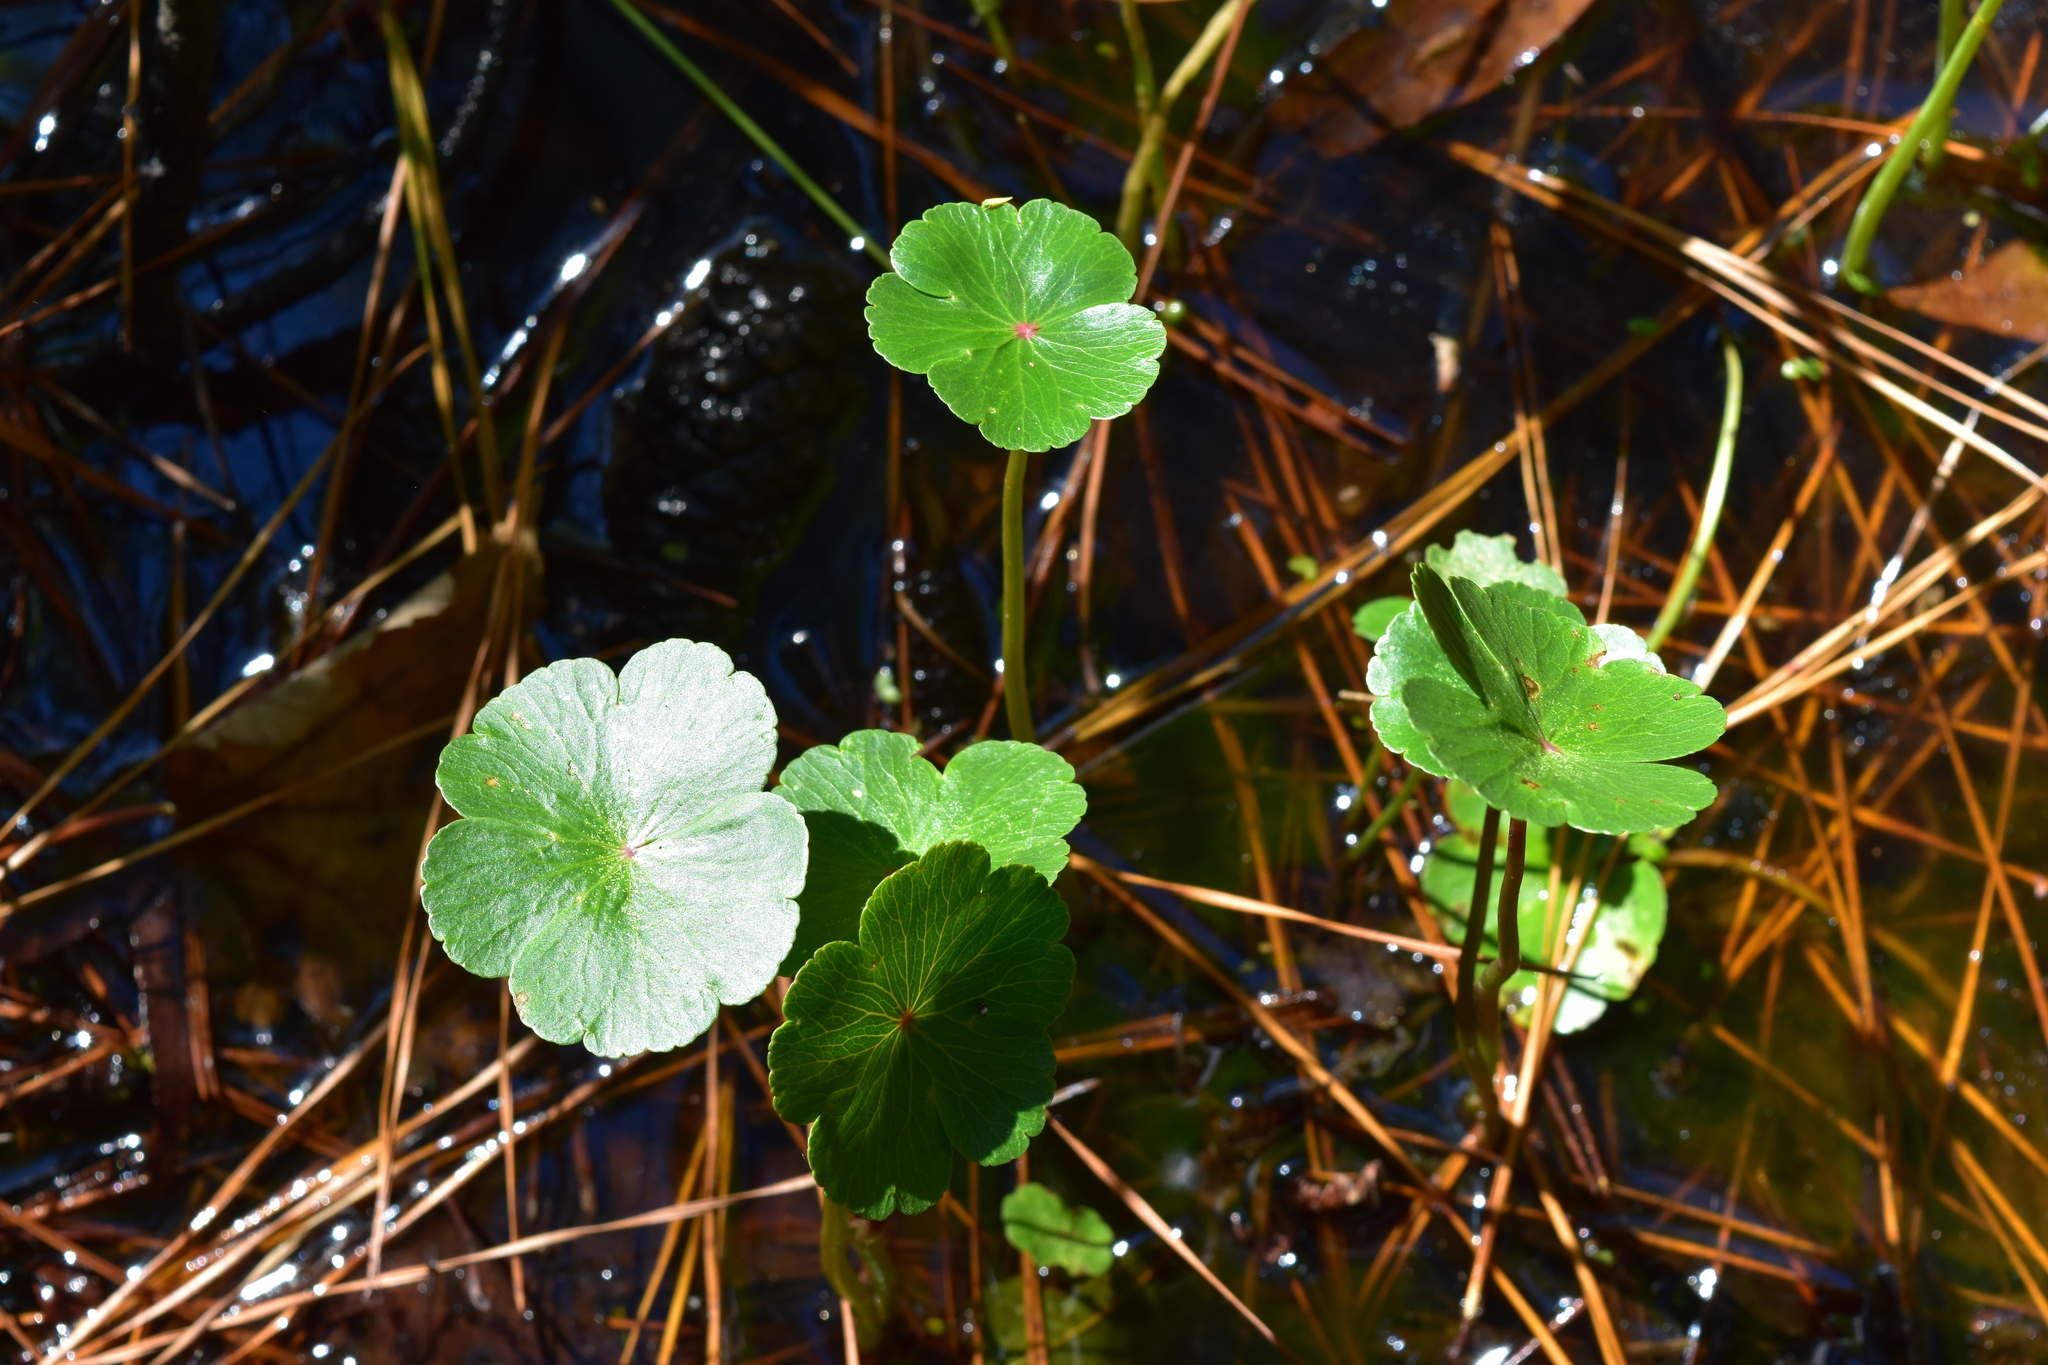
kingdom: Plantae
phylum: Tracheophyta
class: Magnoliopsida
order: Apiales
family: Araliaceae
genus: Hydrocotyle
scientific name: Hydrocotyle ranunculoides
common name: Floating pennywort
